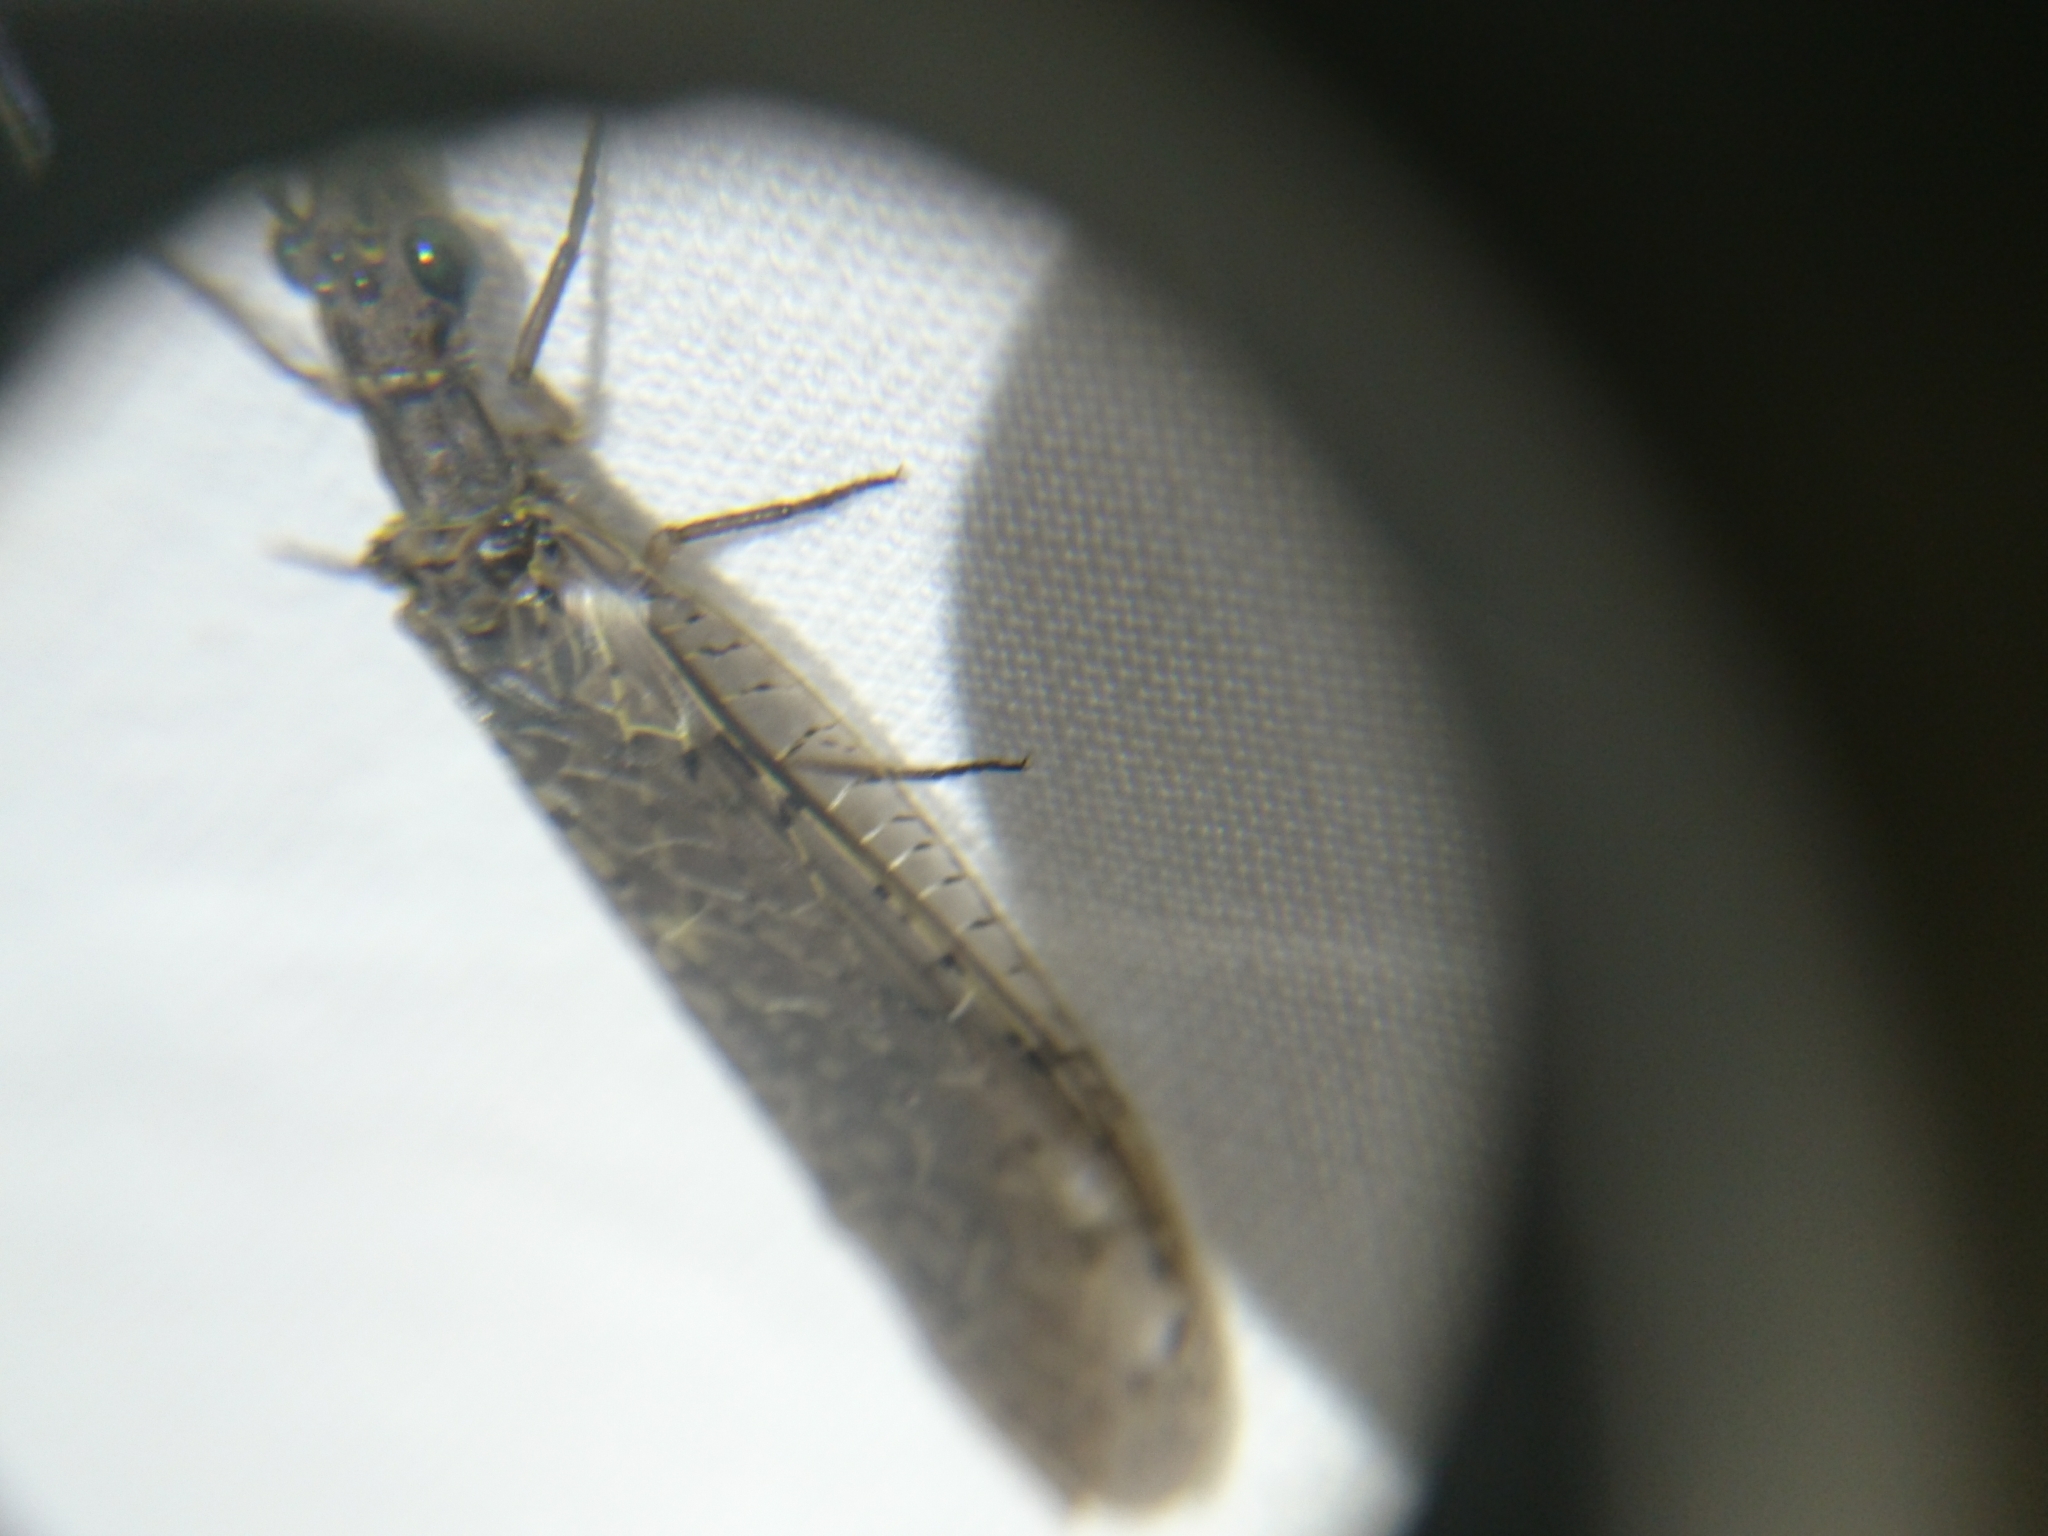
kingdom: Animalia
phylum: Arthropoda
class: Insecta
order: Megaloptera
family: Corydalidae
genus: Chauliodes
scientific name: Chauliodes rastricornis
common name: Spring fishfly
